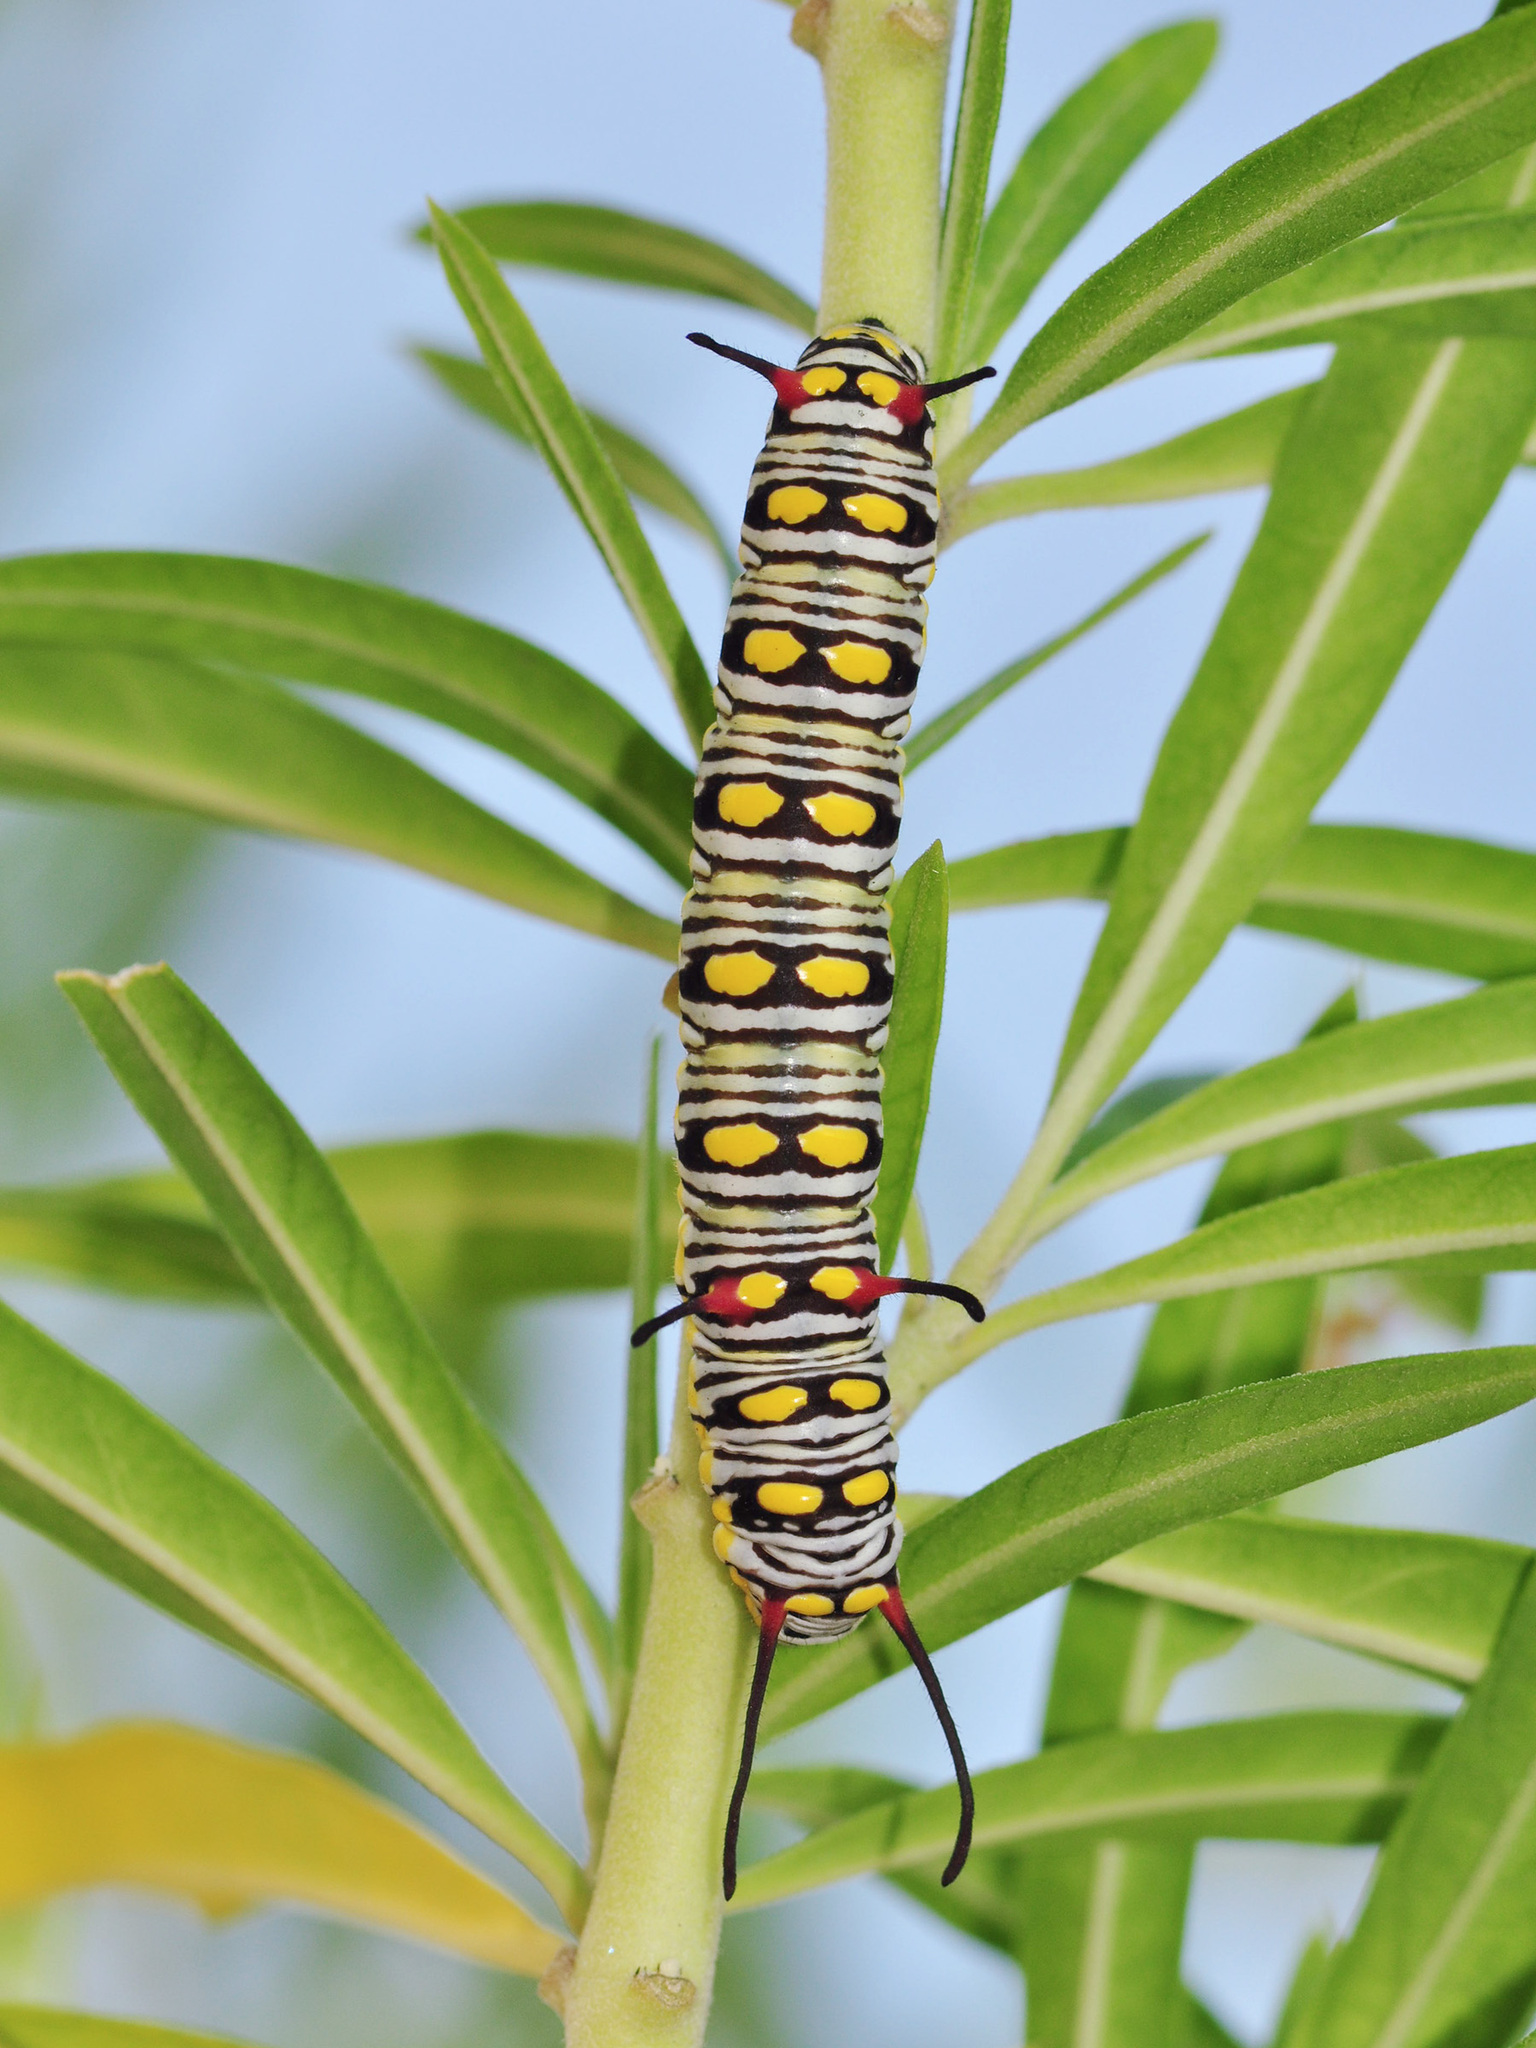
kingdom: Animalia
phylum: Arthropoda
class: Insecta
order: Lepidoptera
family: Nymphalidae
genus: Danaus
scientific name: Danaus chrysippus
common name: Plain tiger
